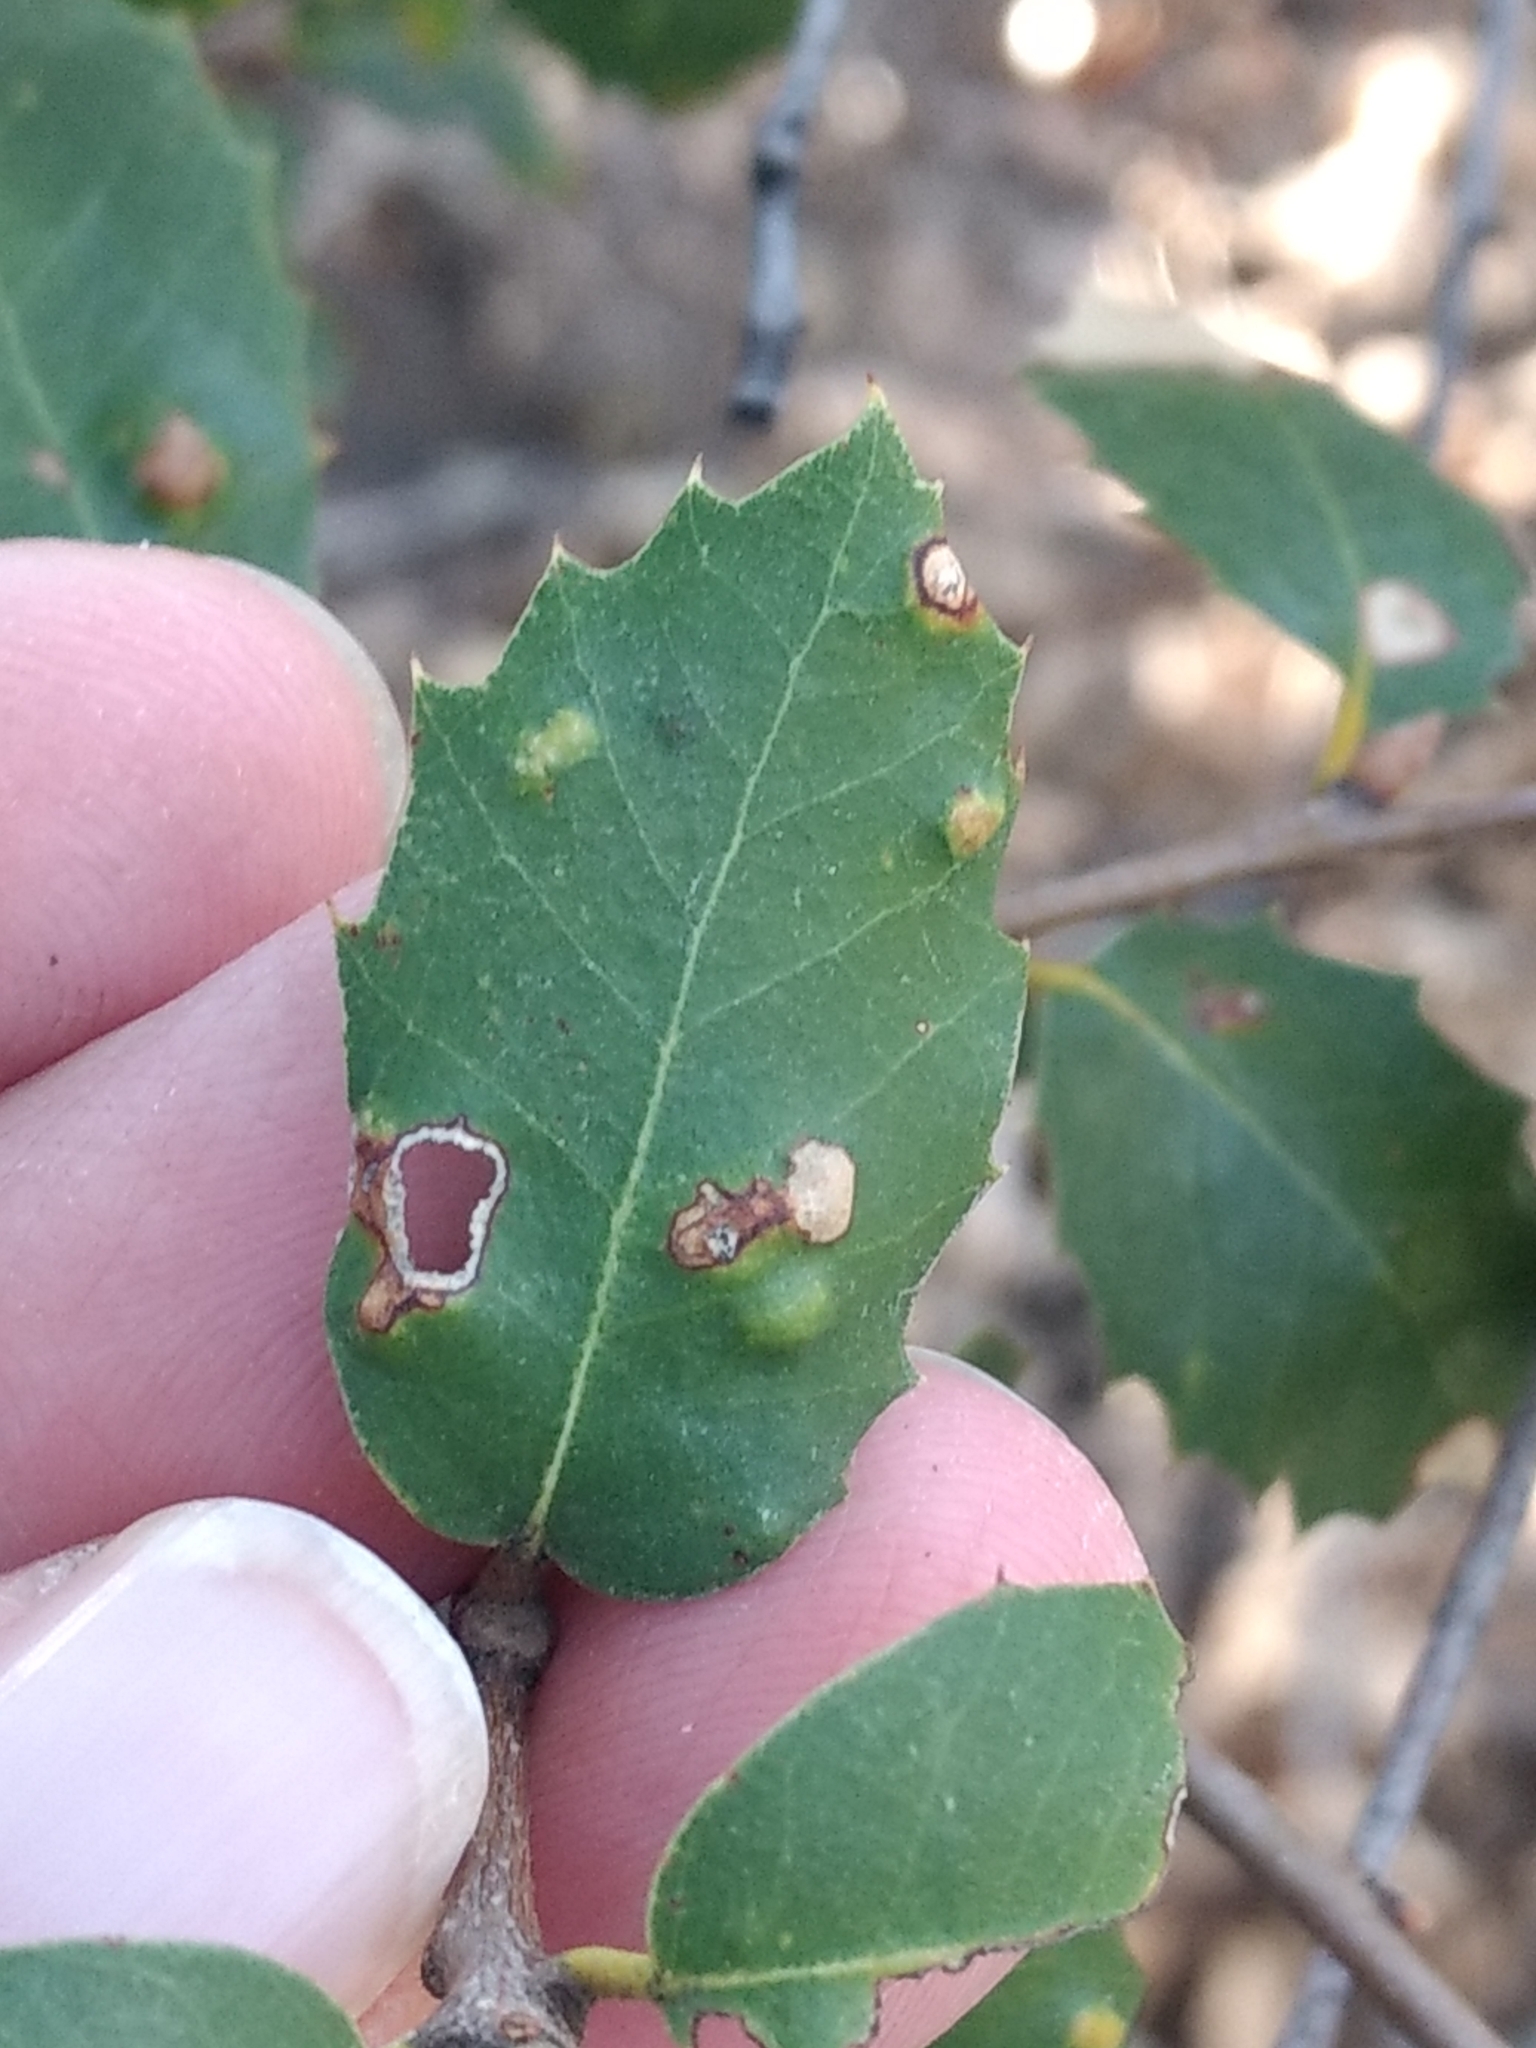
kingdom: Animalia
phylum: Arthropoda
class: Arachnida
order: Trombidiformes
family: Eriophyidae
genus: Aceria
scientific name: Aceria
